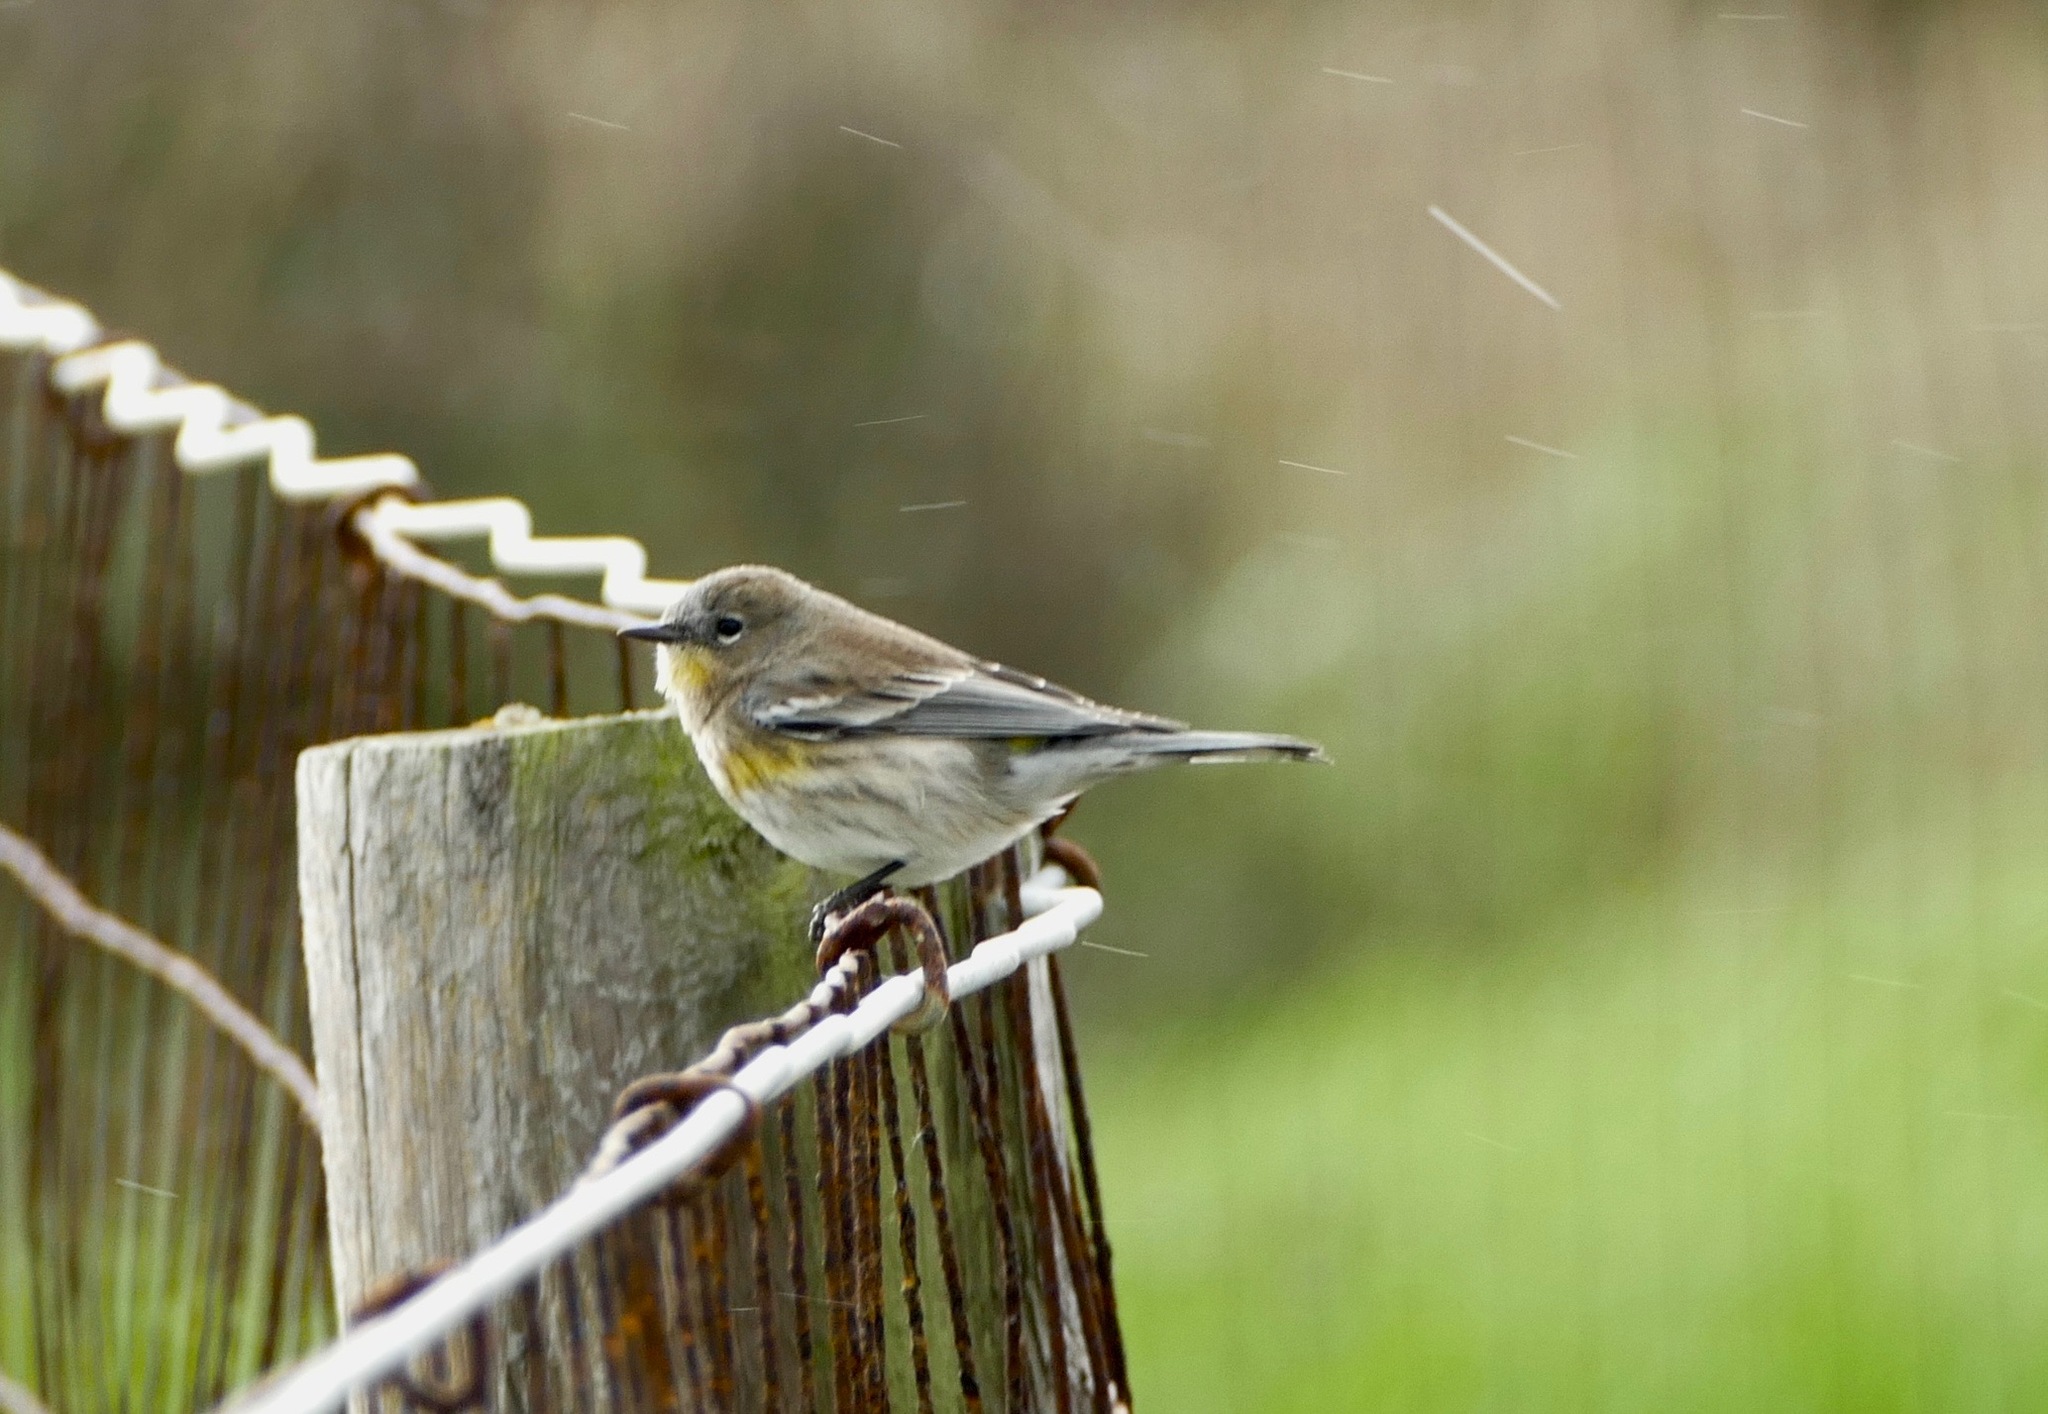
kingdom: Animalia
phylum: Chordata
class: Aves
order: Passeriformes
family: Parulidae
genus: Setophaga
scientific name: Setophaga coronata
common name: Myrtle warbler
